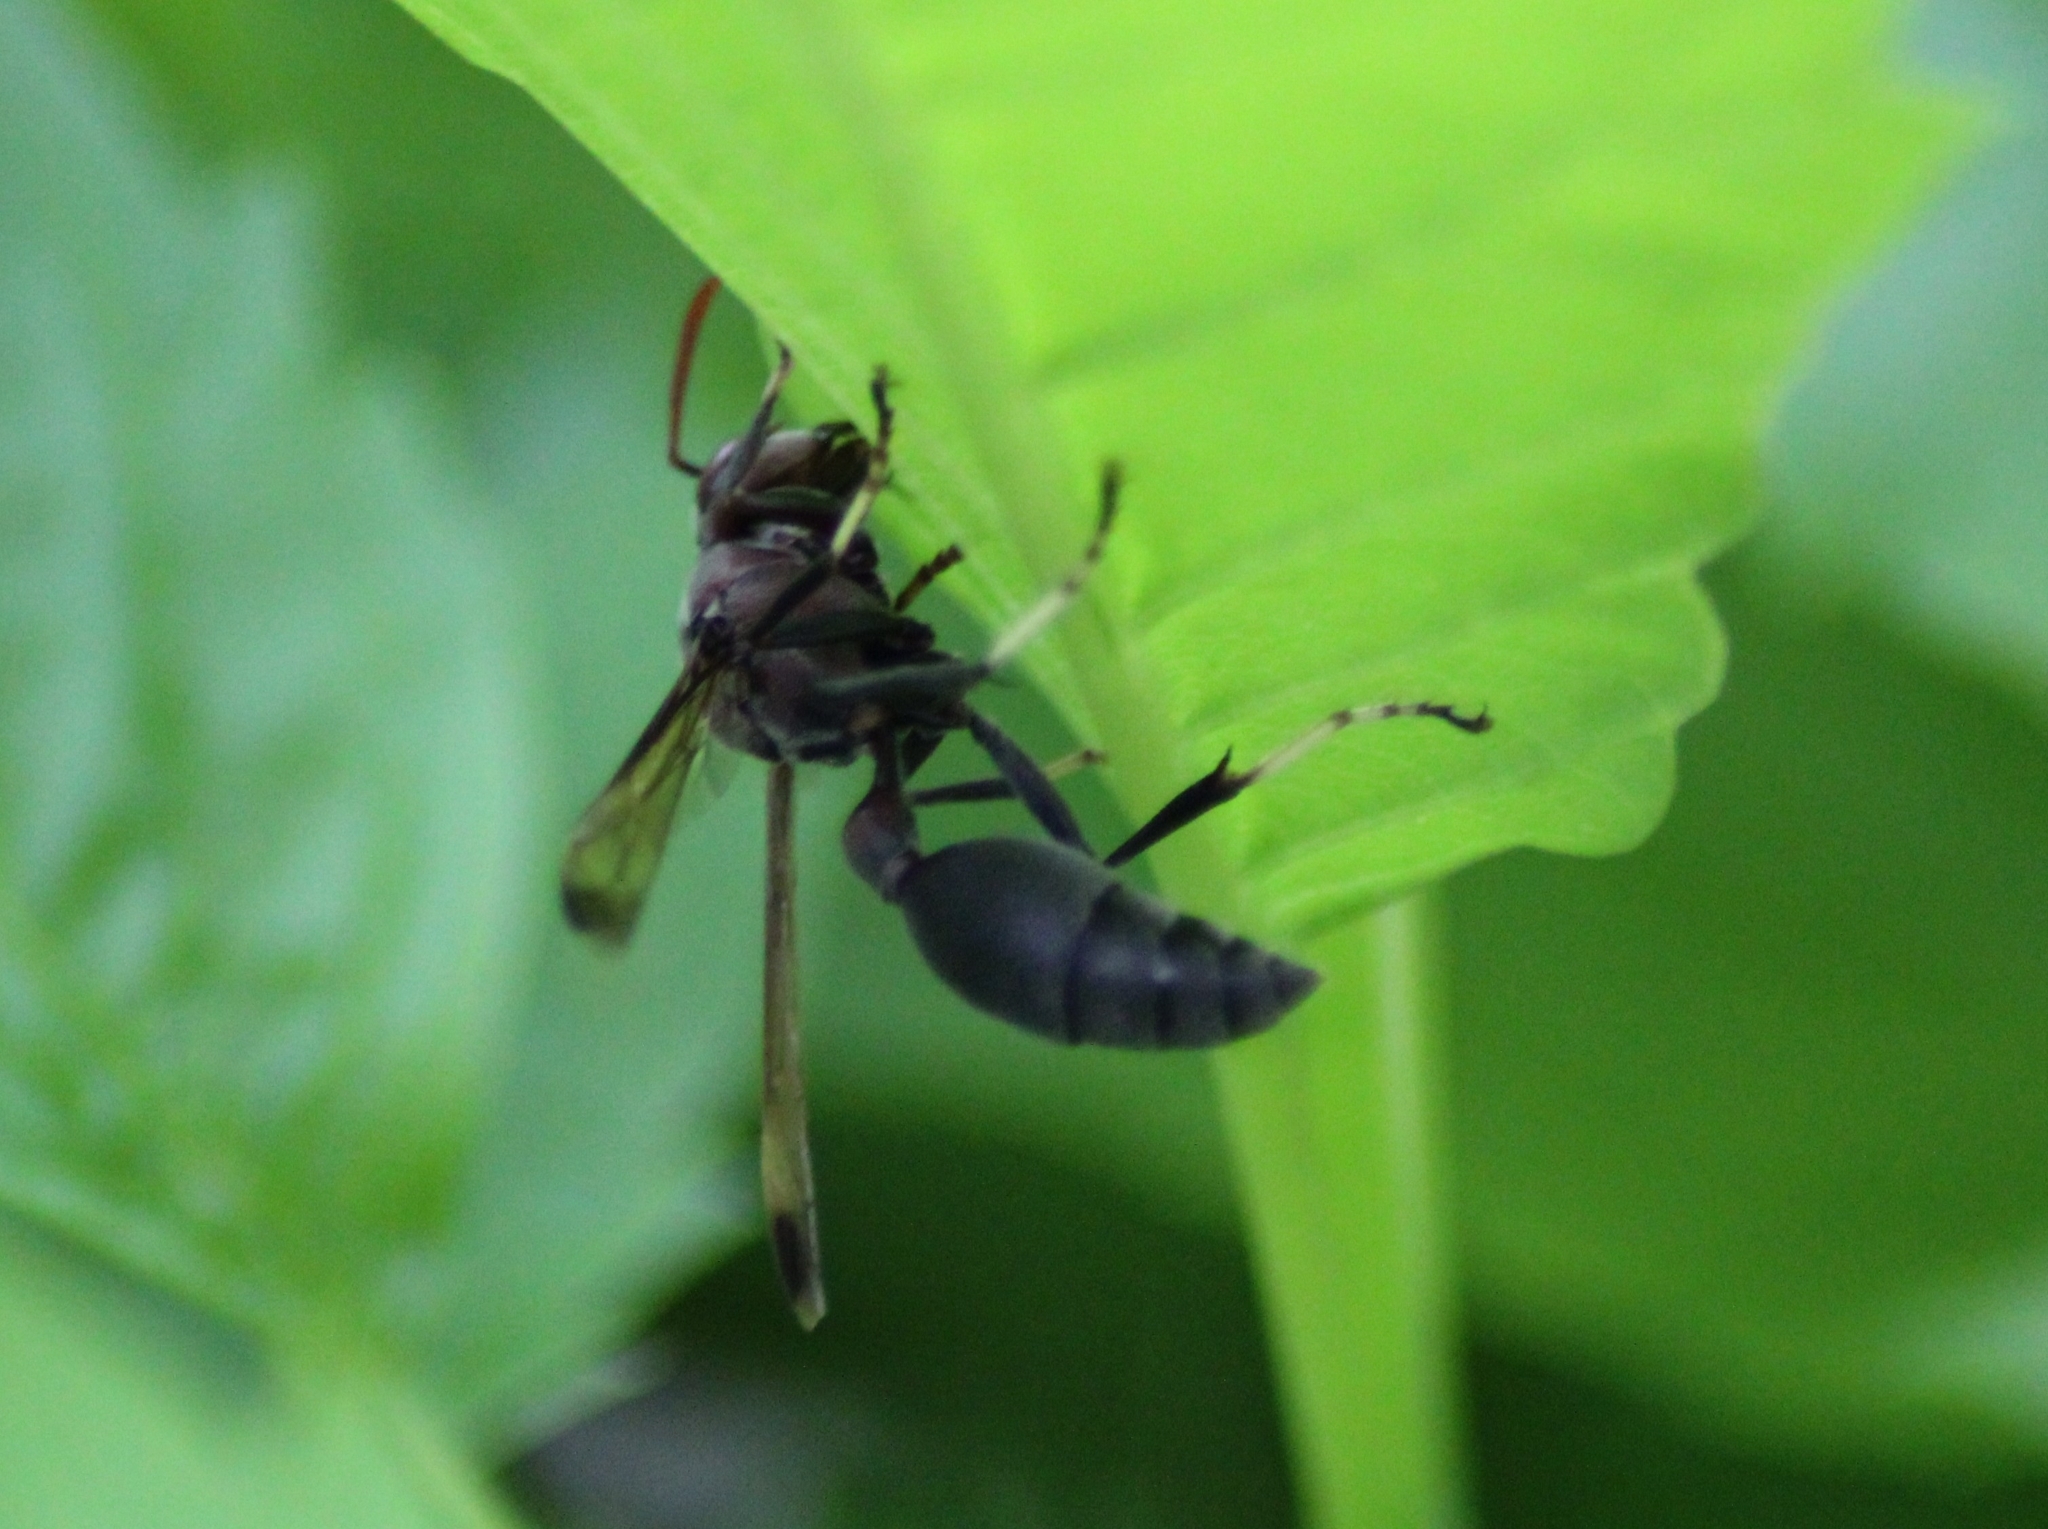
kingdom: Animalia
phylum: Arthropoda
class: Insecta
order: Hymenoptera
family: Vespidae
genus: Ropalidia
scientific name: Ropalidia magnanima
